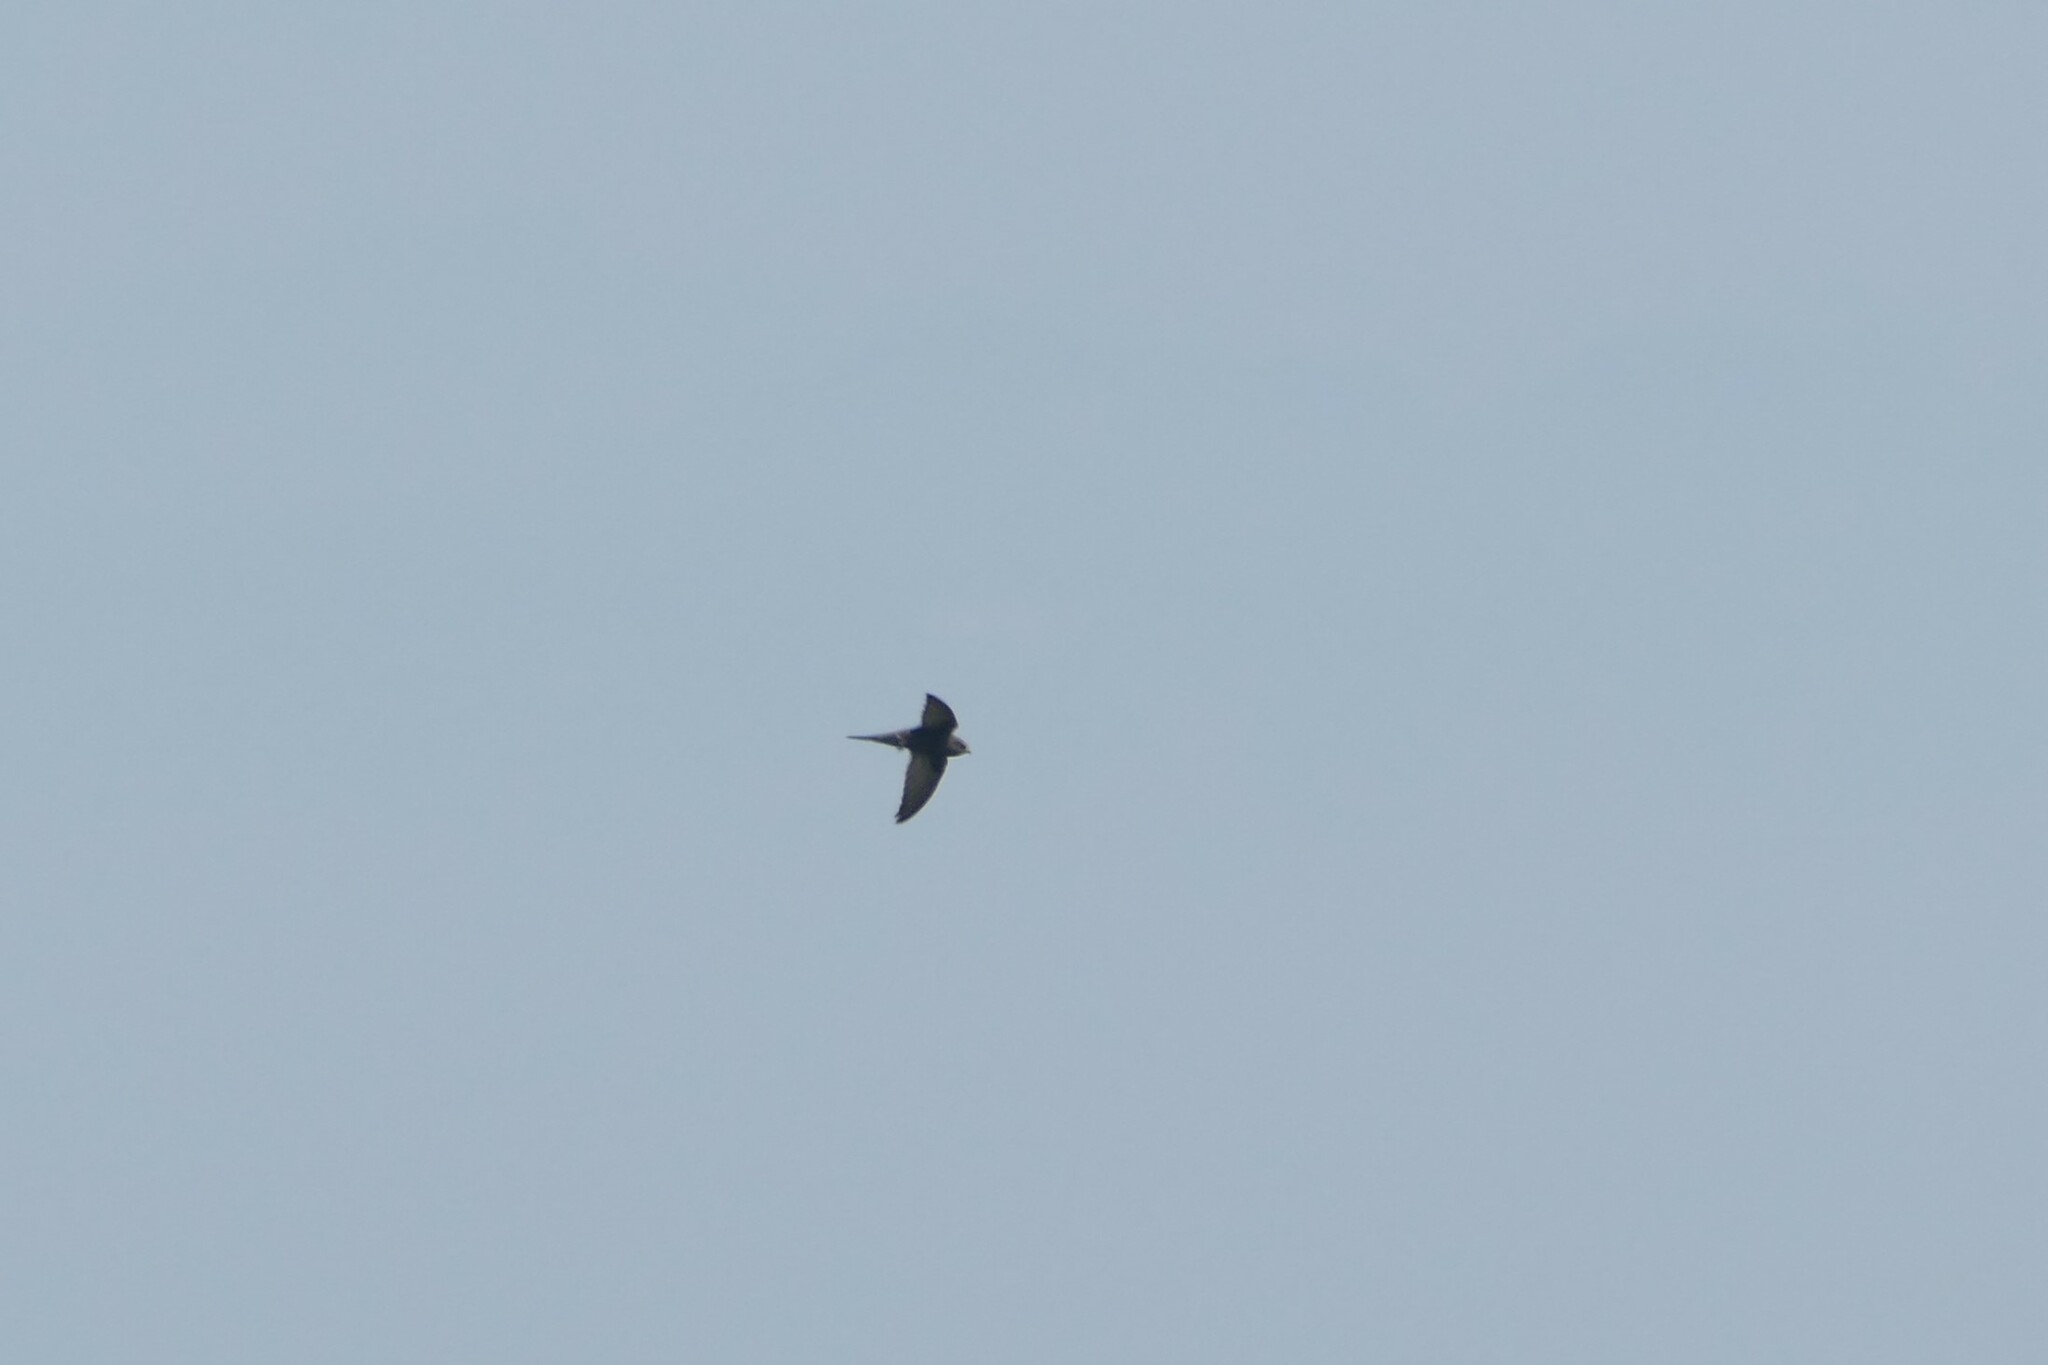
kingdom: Animalia
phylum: Chordata
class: Aves
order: Apodiformes
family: Apodidae
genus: Apus
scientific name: Apus apus
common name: Common swift
